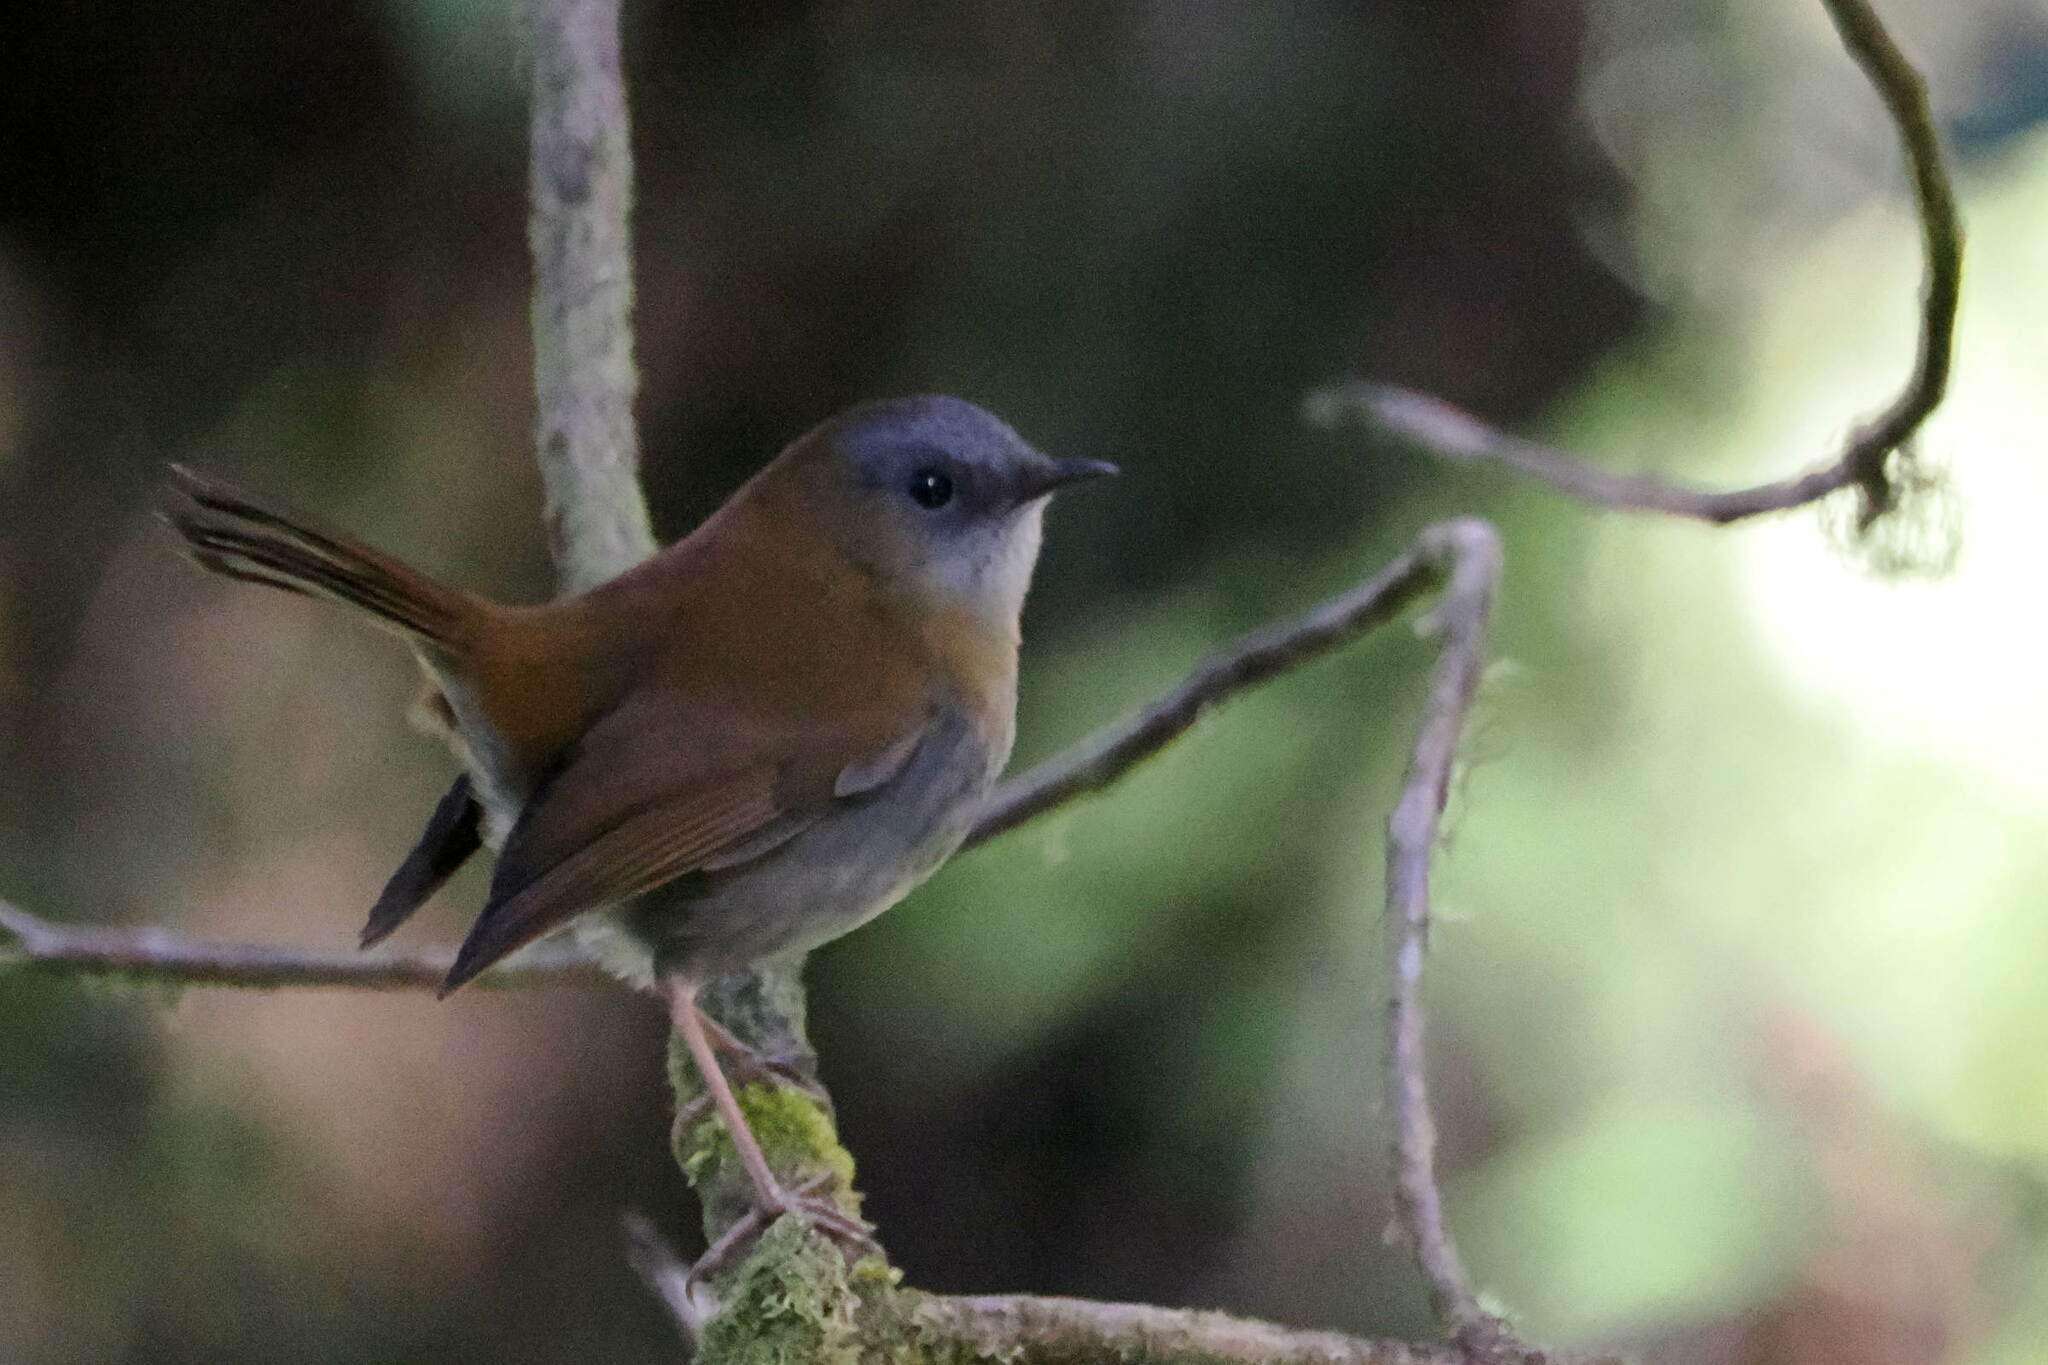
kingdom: Animalia
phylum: Chordata
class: Aves
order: Passeriformes
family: Turdidae
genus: Catharus
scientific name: Catharus gracilirostris
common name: Black-billed nightingale-thrush
